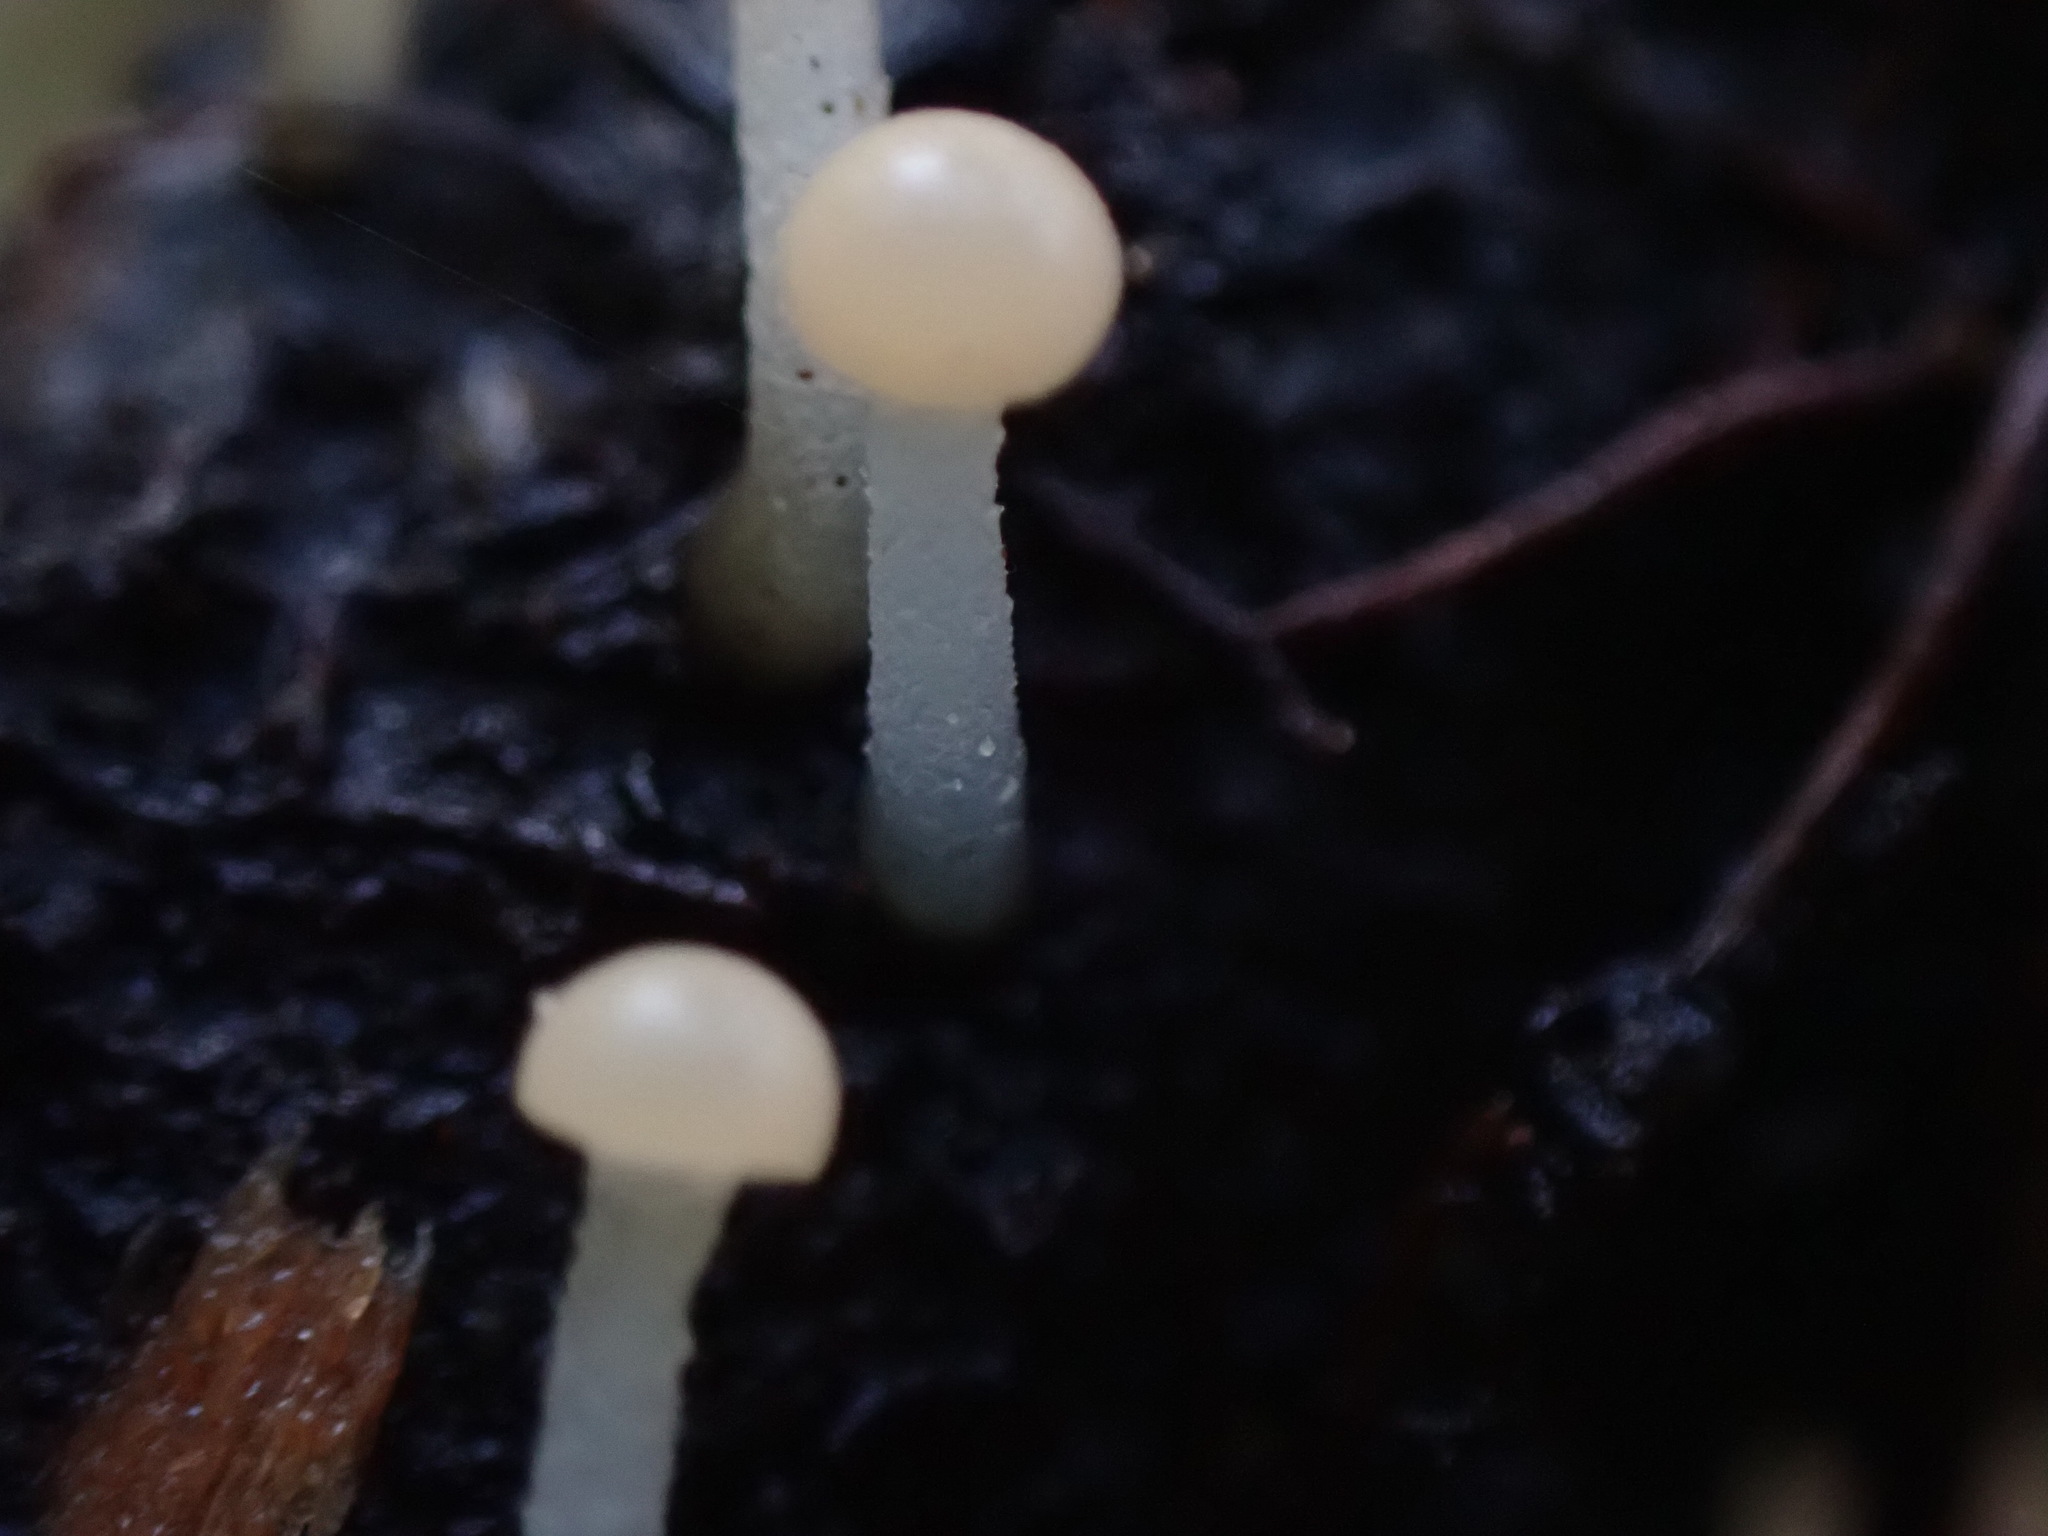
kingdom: Fungi
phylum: Ascomycota
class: Leotiomycetes
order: Helotiales
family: Vibrisseaceae
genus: Vibrissea
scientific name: Vibrissea truncorum
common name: Stream beacon
